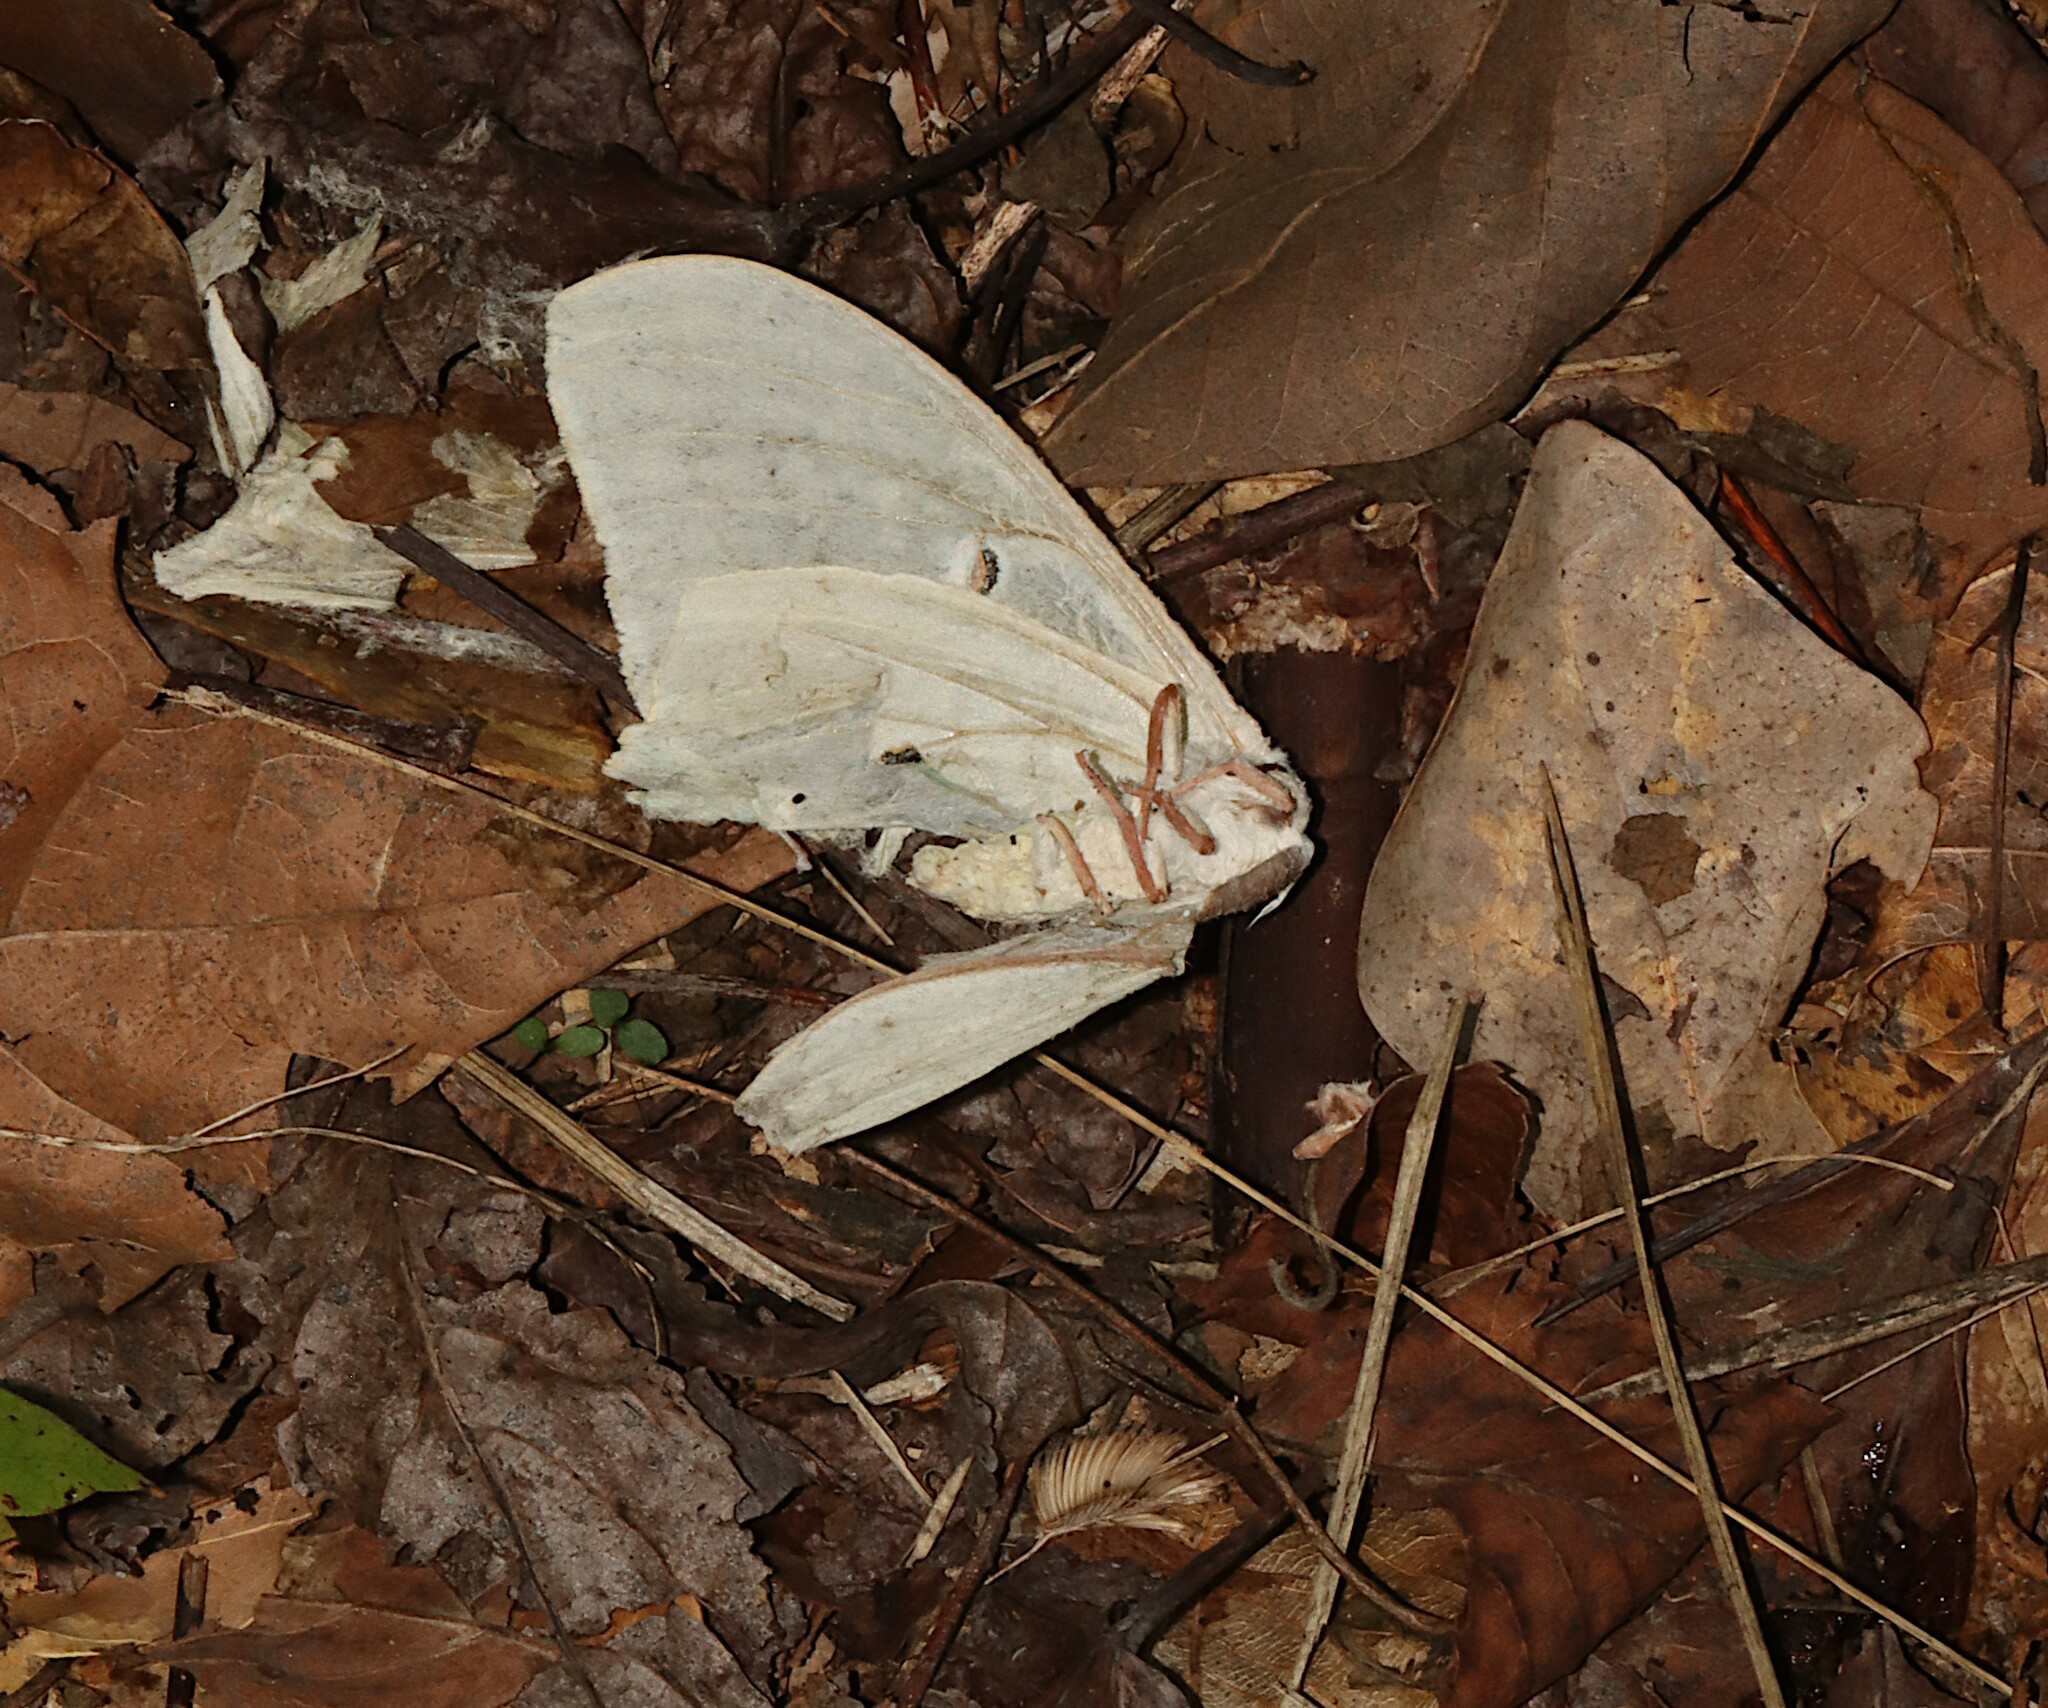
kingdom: Animalia
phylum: Arthropoda
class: Insecta
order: Lepidoptera
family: Saturniidae
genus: Actias
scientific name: Actias luna
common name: Luna moth
